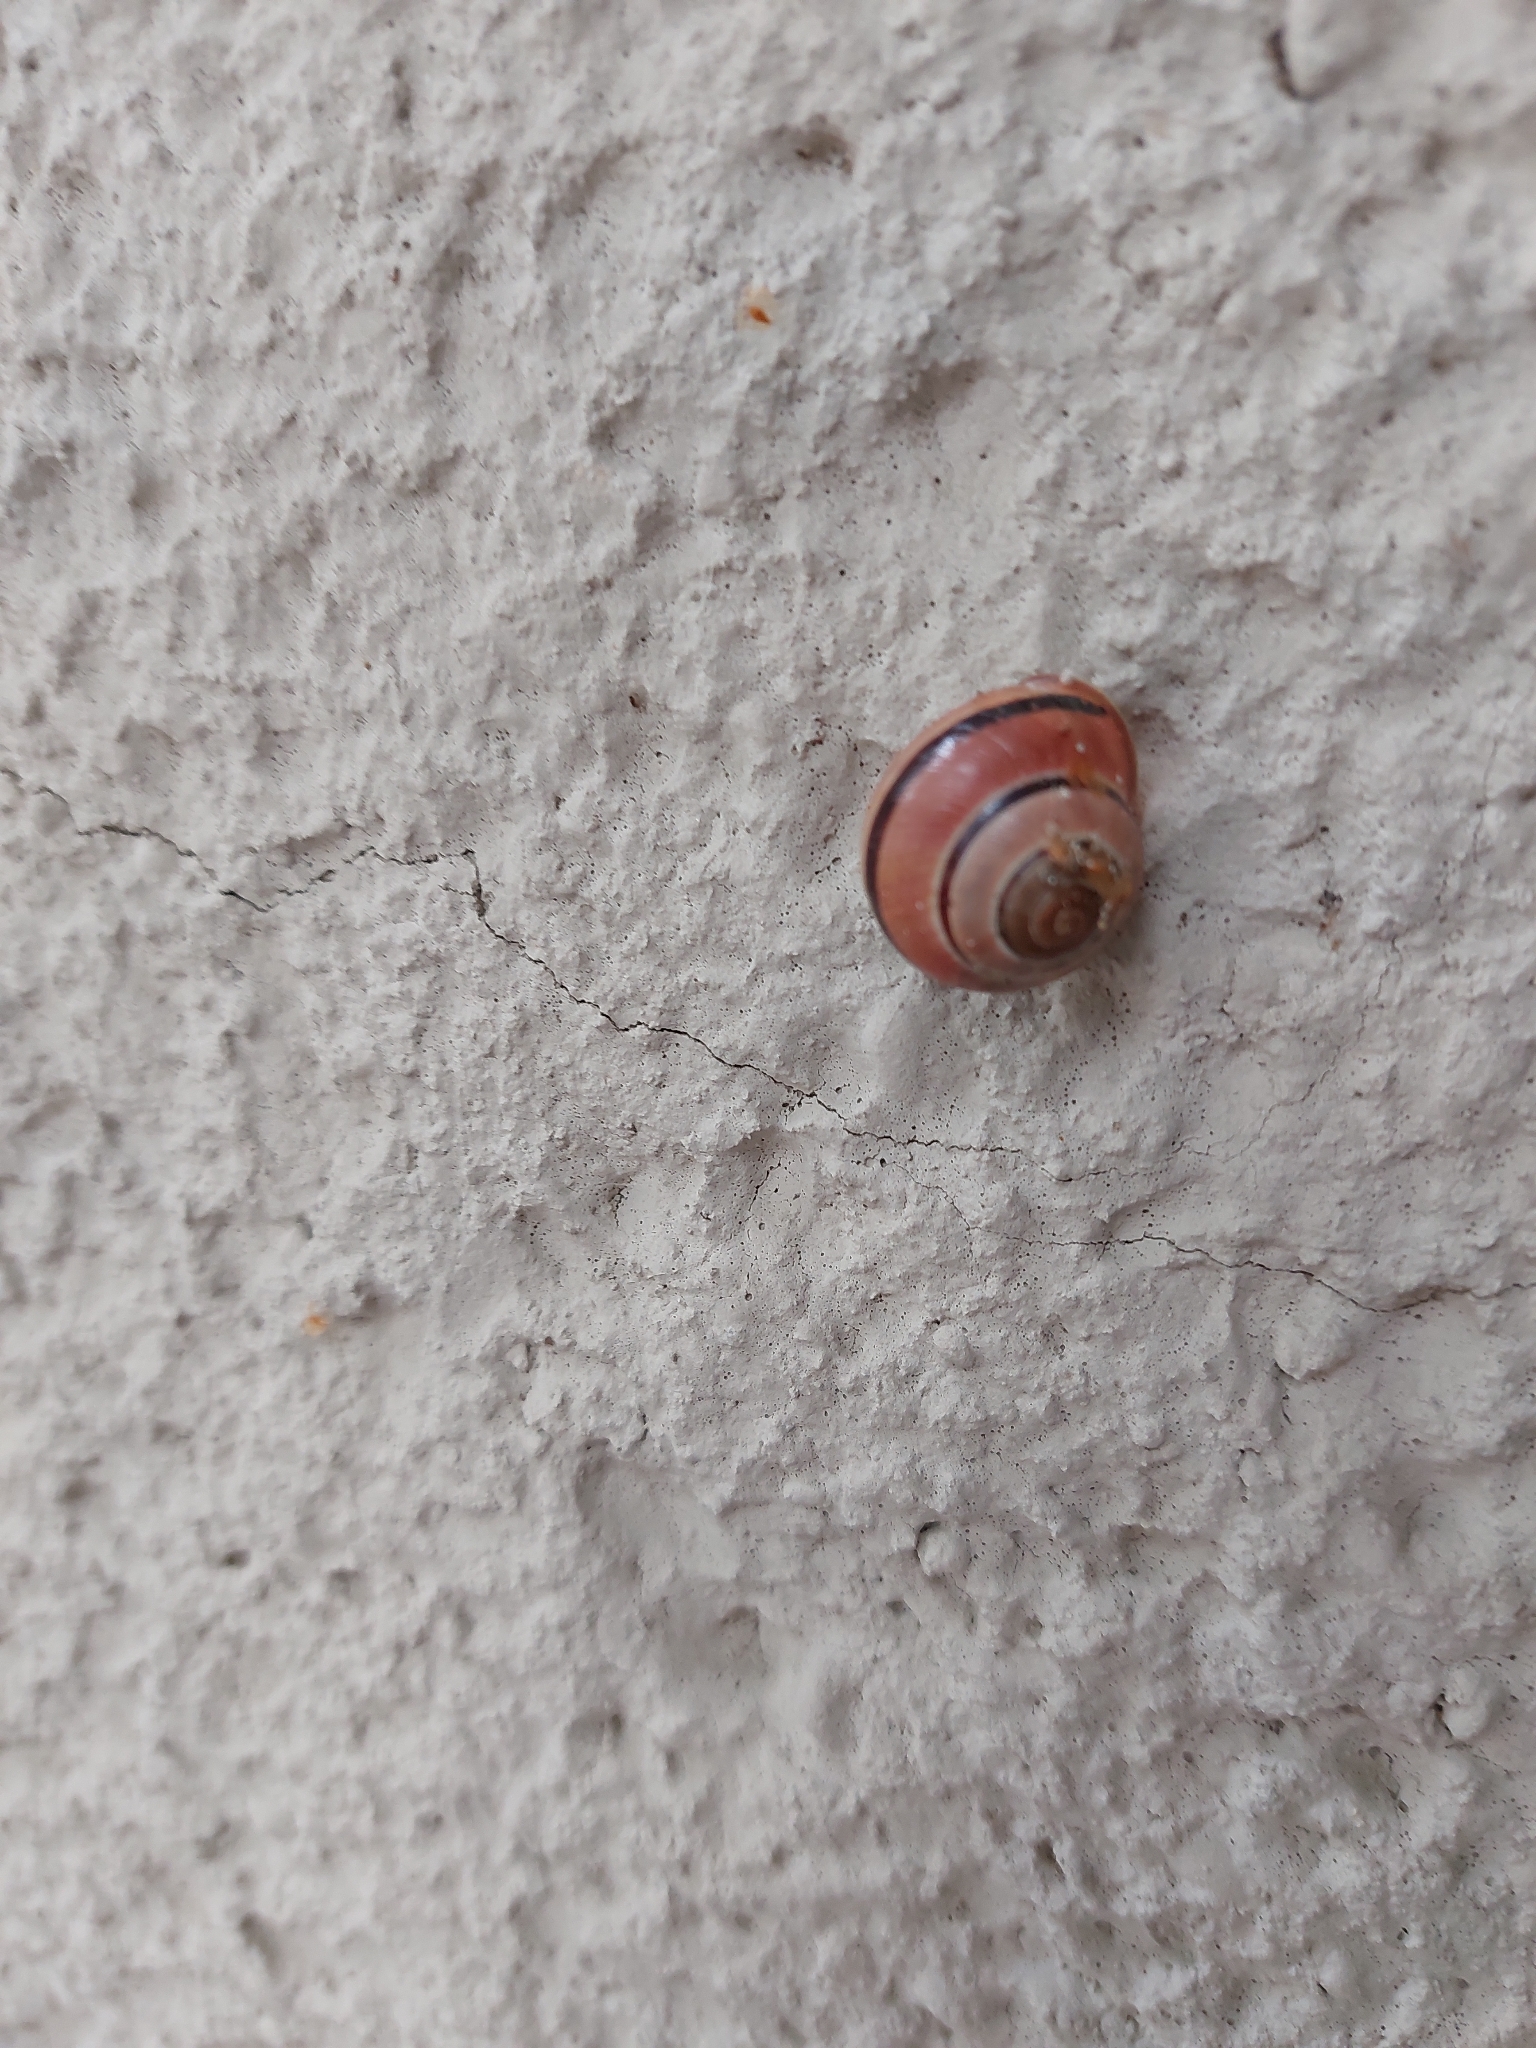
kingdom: Animalia
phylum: Mollusca
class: Gastropoda
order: Stylommatophora
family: Helicidae
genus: Cepaea
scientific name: Cepaea nemoralis
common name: Grovesnail
